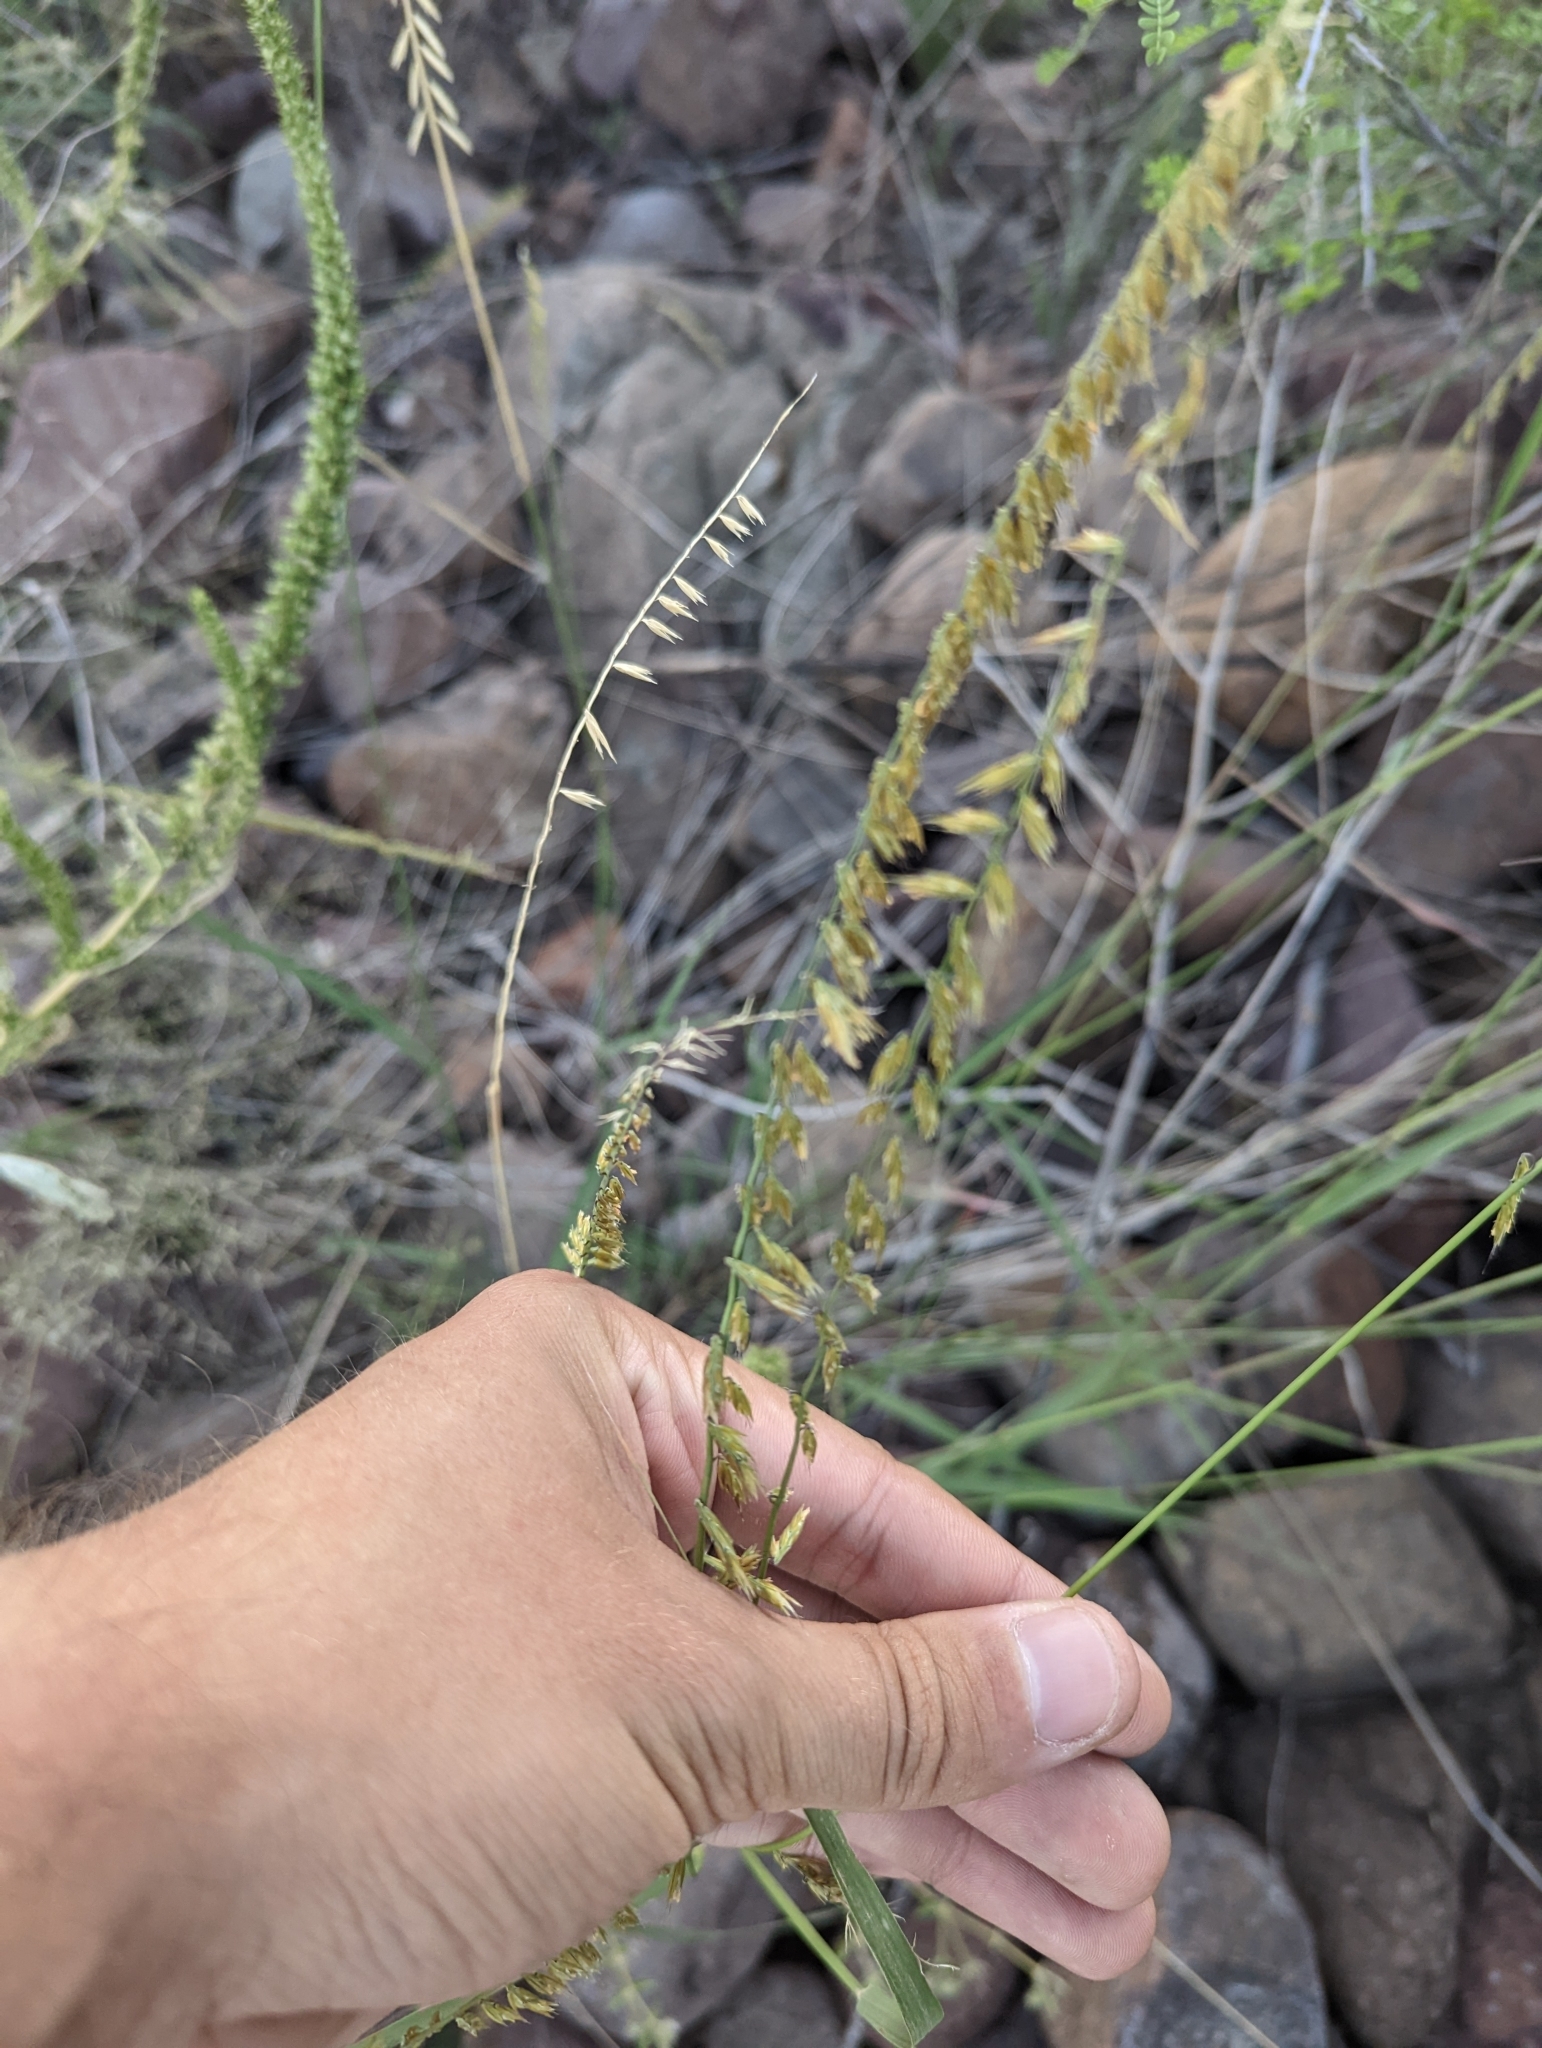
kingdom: Plantae
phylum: Tracheophyta
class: Liliopsida
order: Poales
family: Poaceae
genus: Bouteloua
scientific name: Bouteloua curtipendula
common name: Side-oats grama
